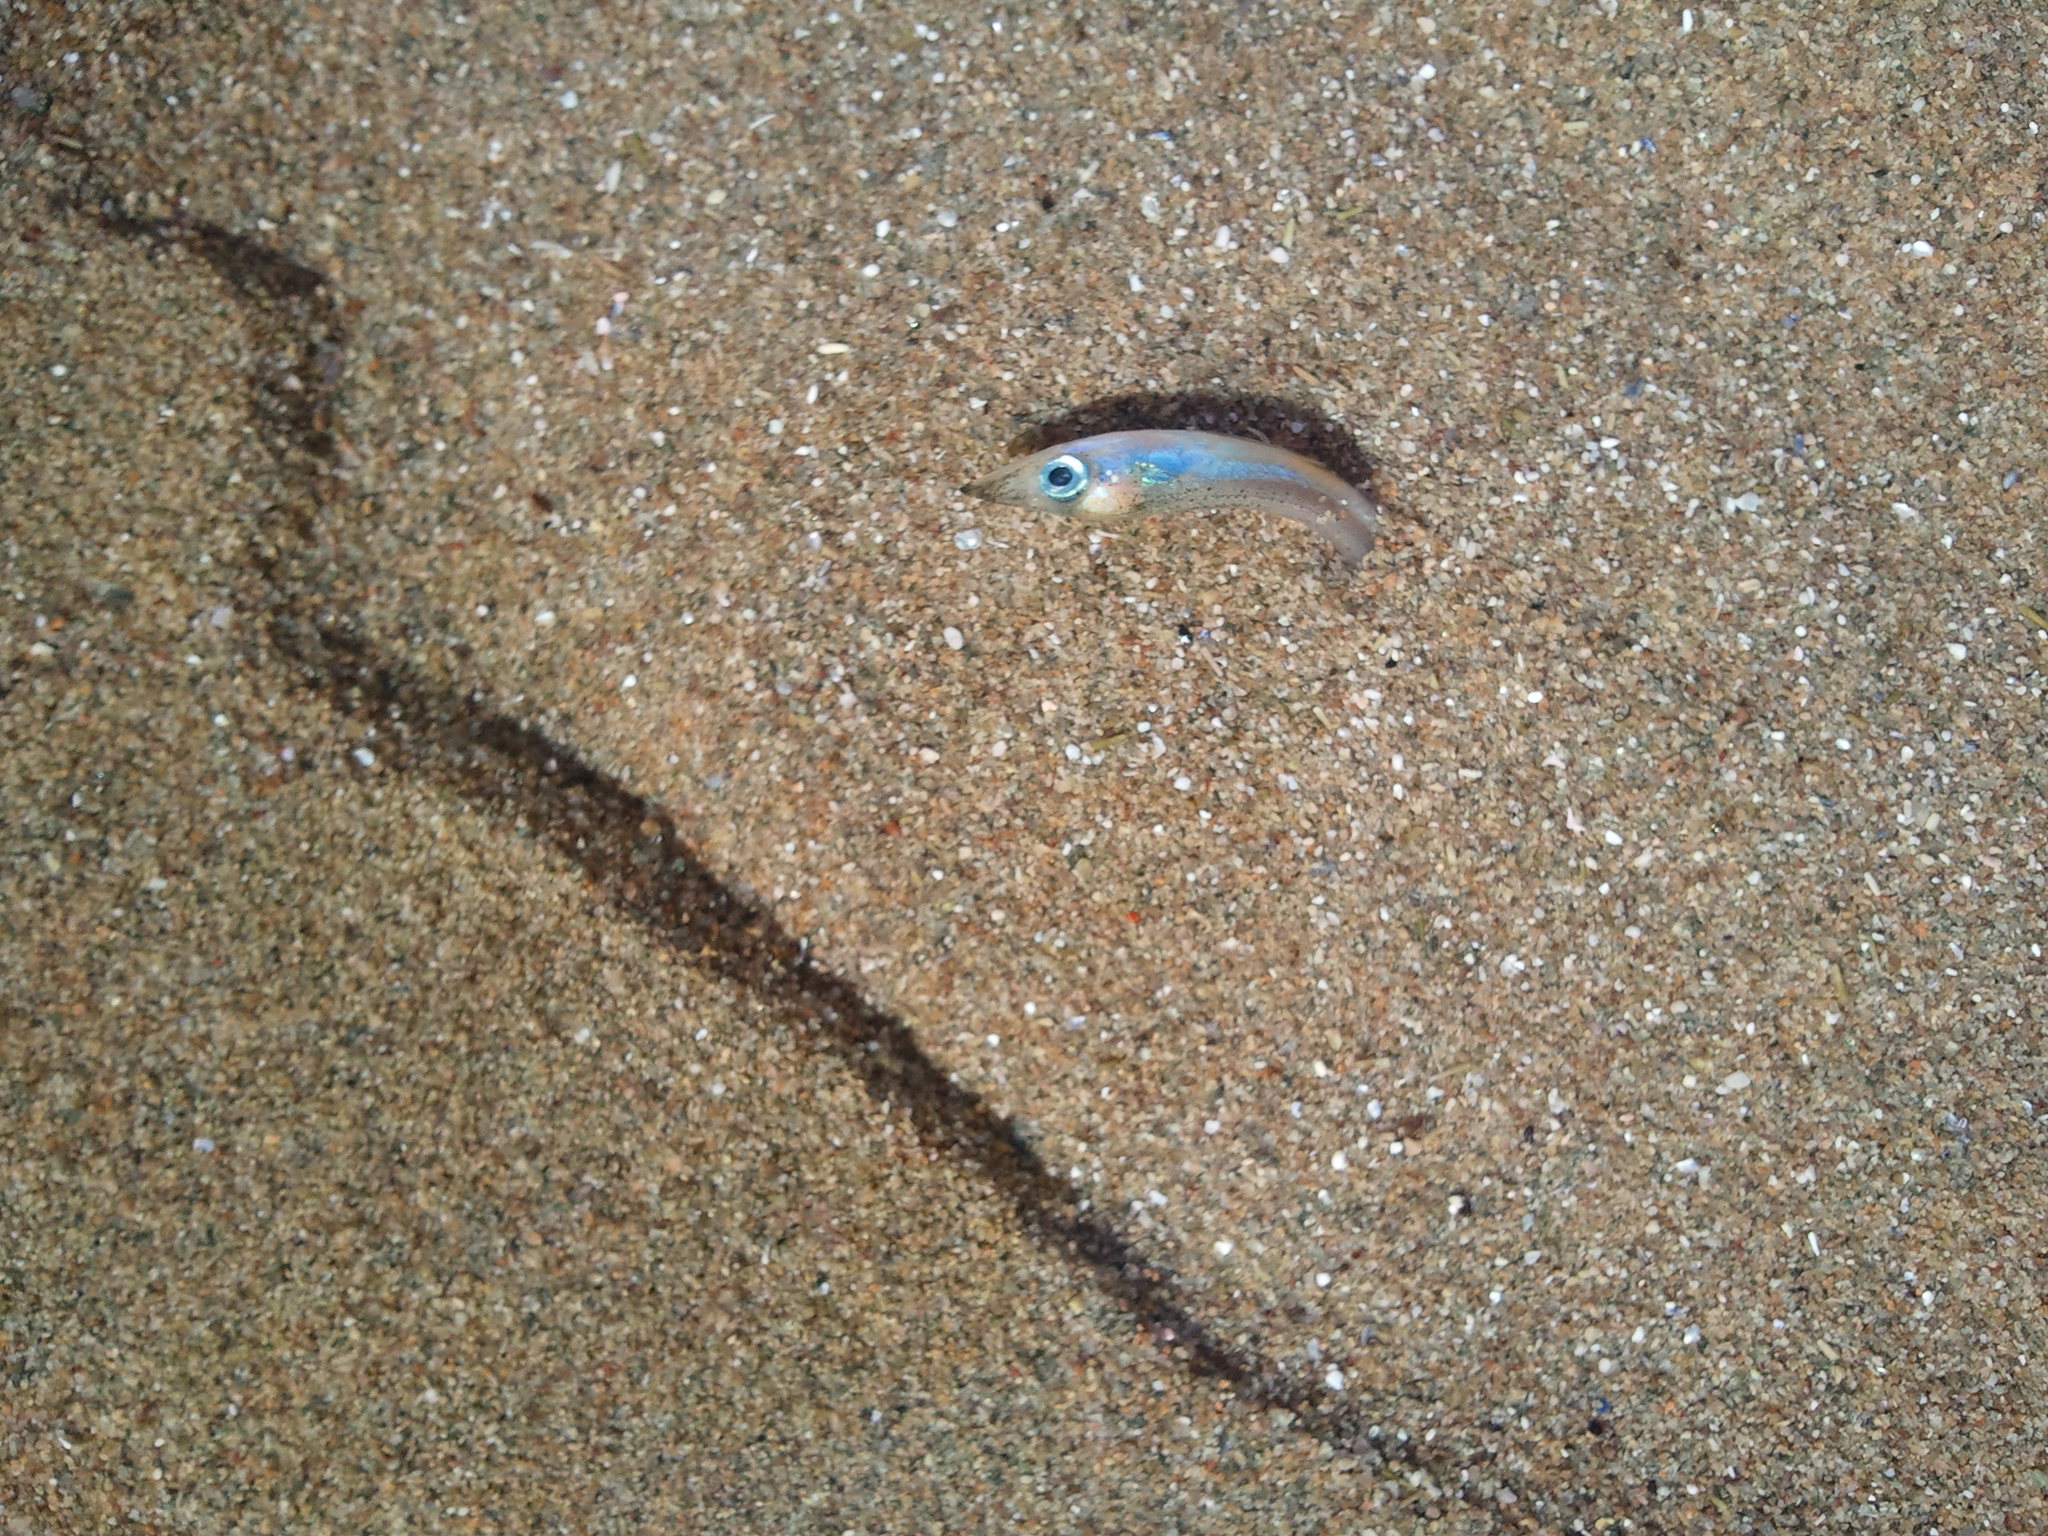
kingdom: Animalia
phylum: Chordata
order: Perciformes
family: Ammodytidae
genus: Ammodytes
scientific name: Ammodytes
